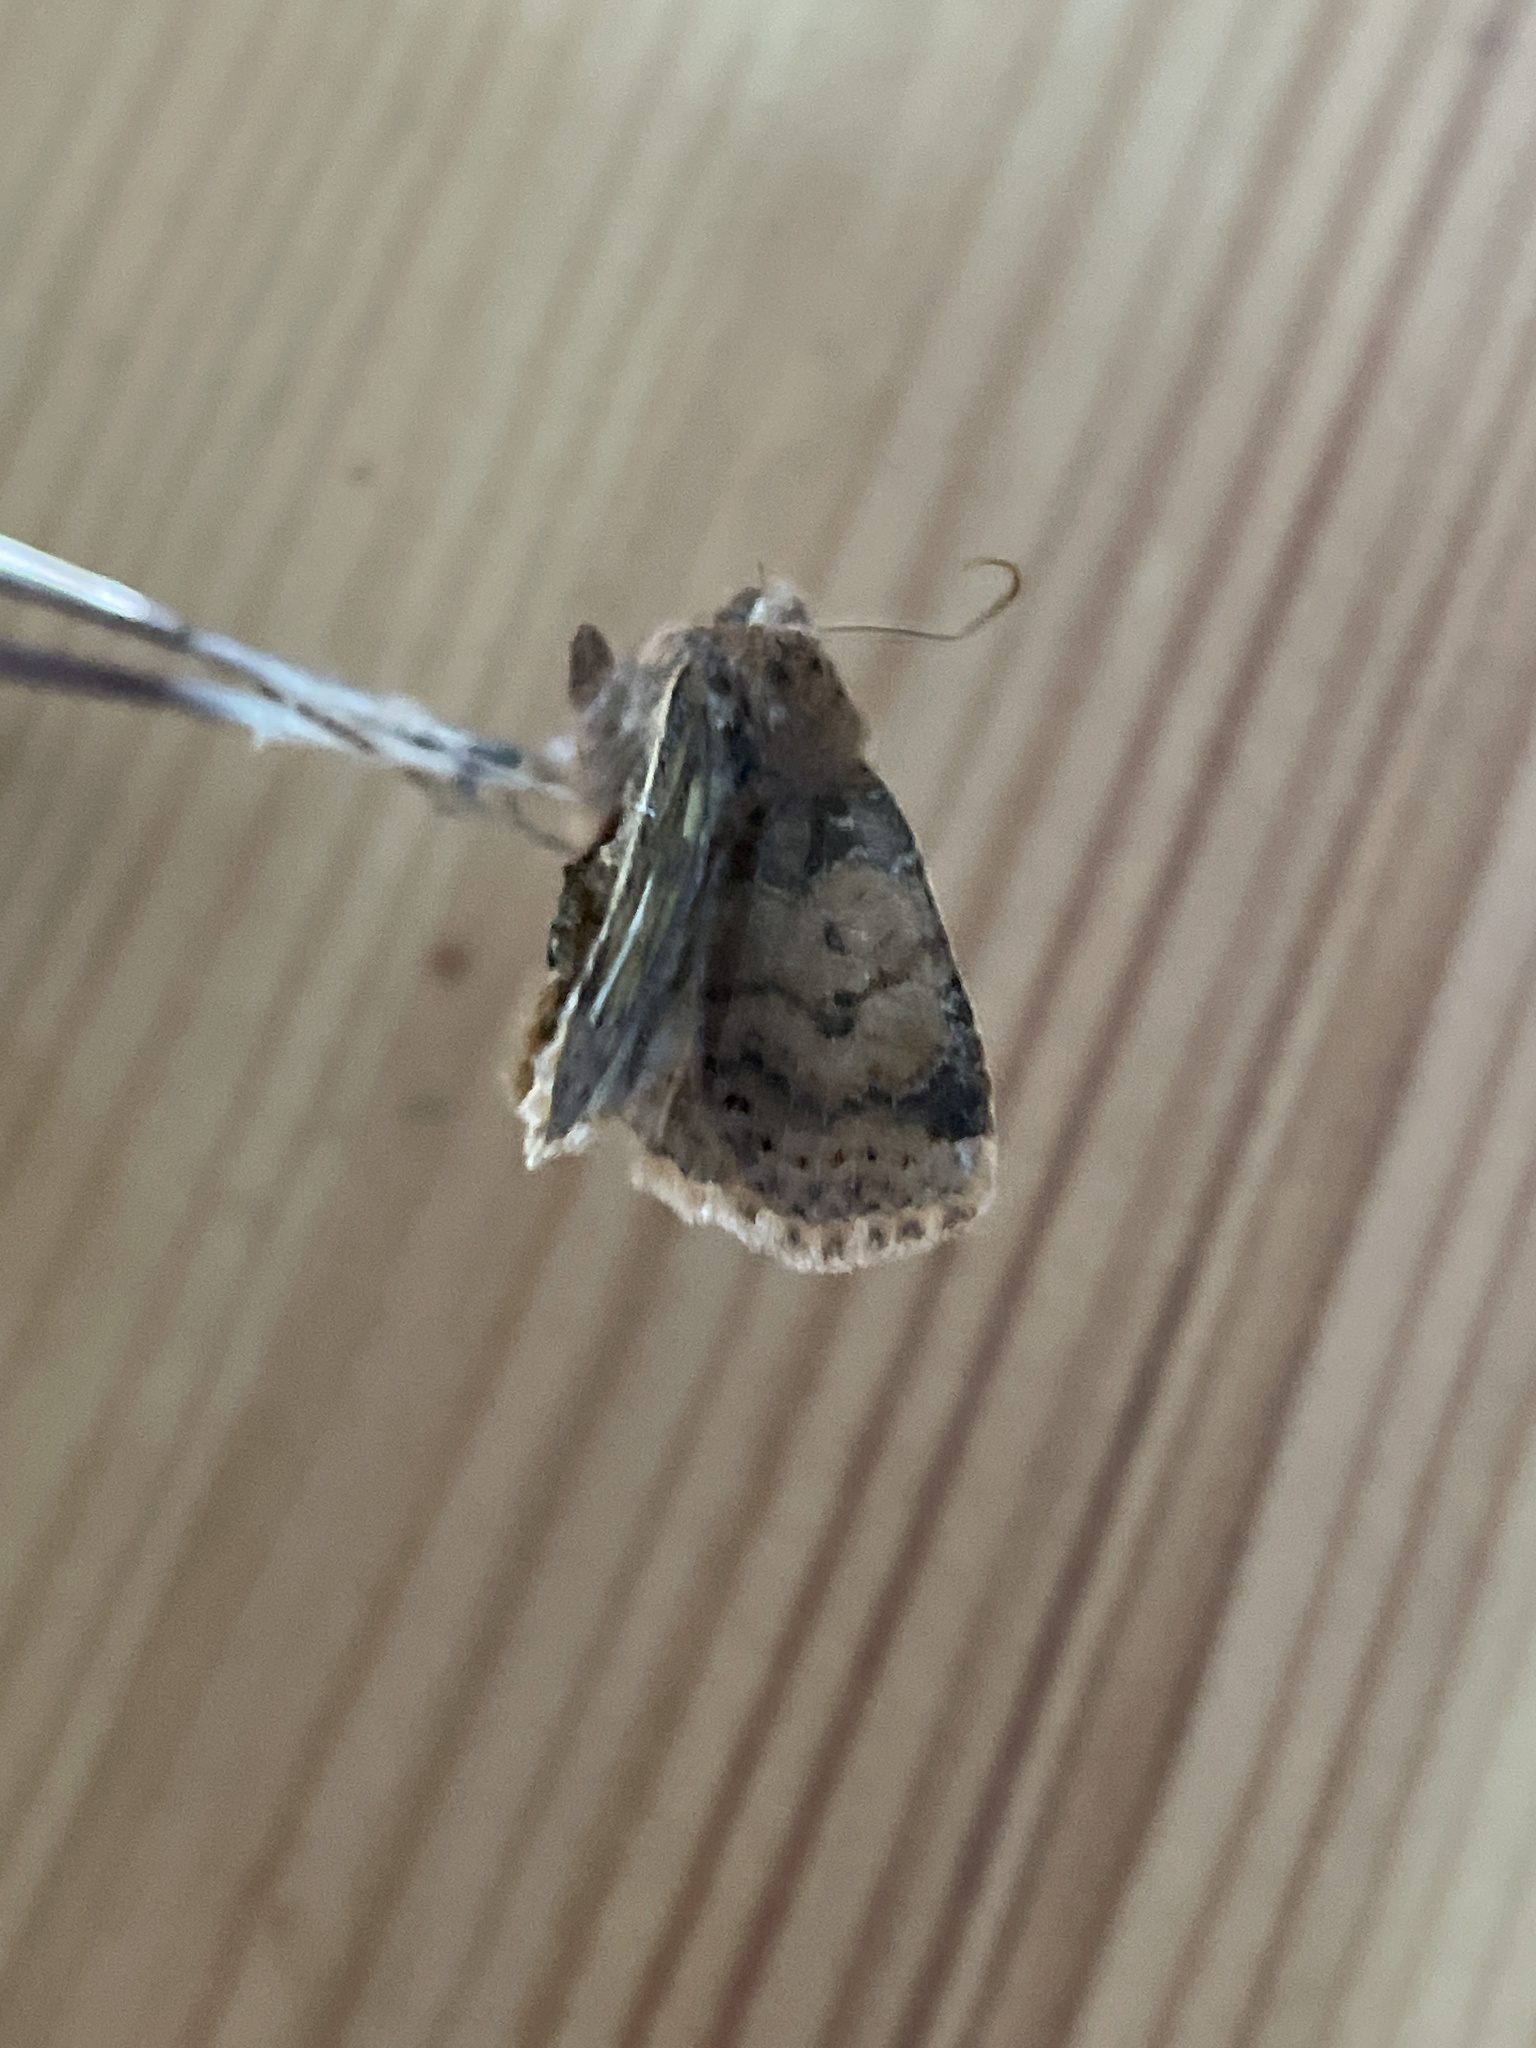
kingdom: Animalia
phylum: Arthropoda
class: Insecta
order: Lepidoptera
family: Noctuidae
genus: Conistra
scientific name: Conistra vaccinii
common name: Chestnut
